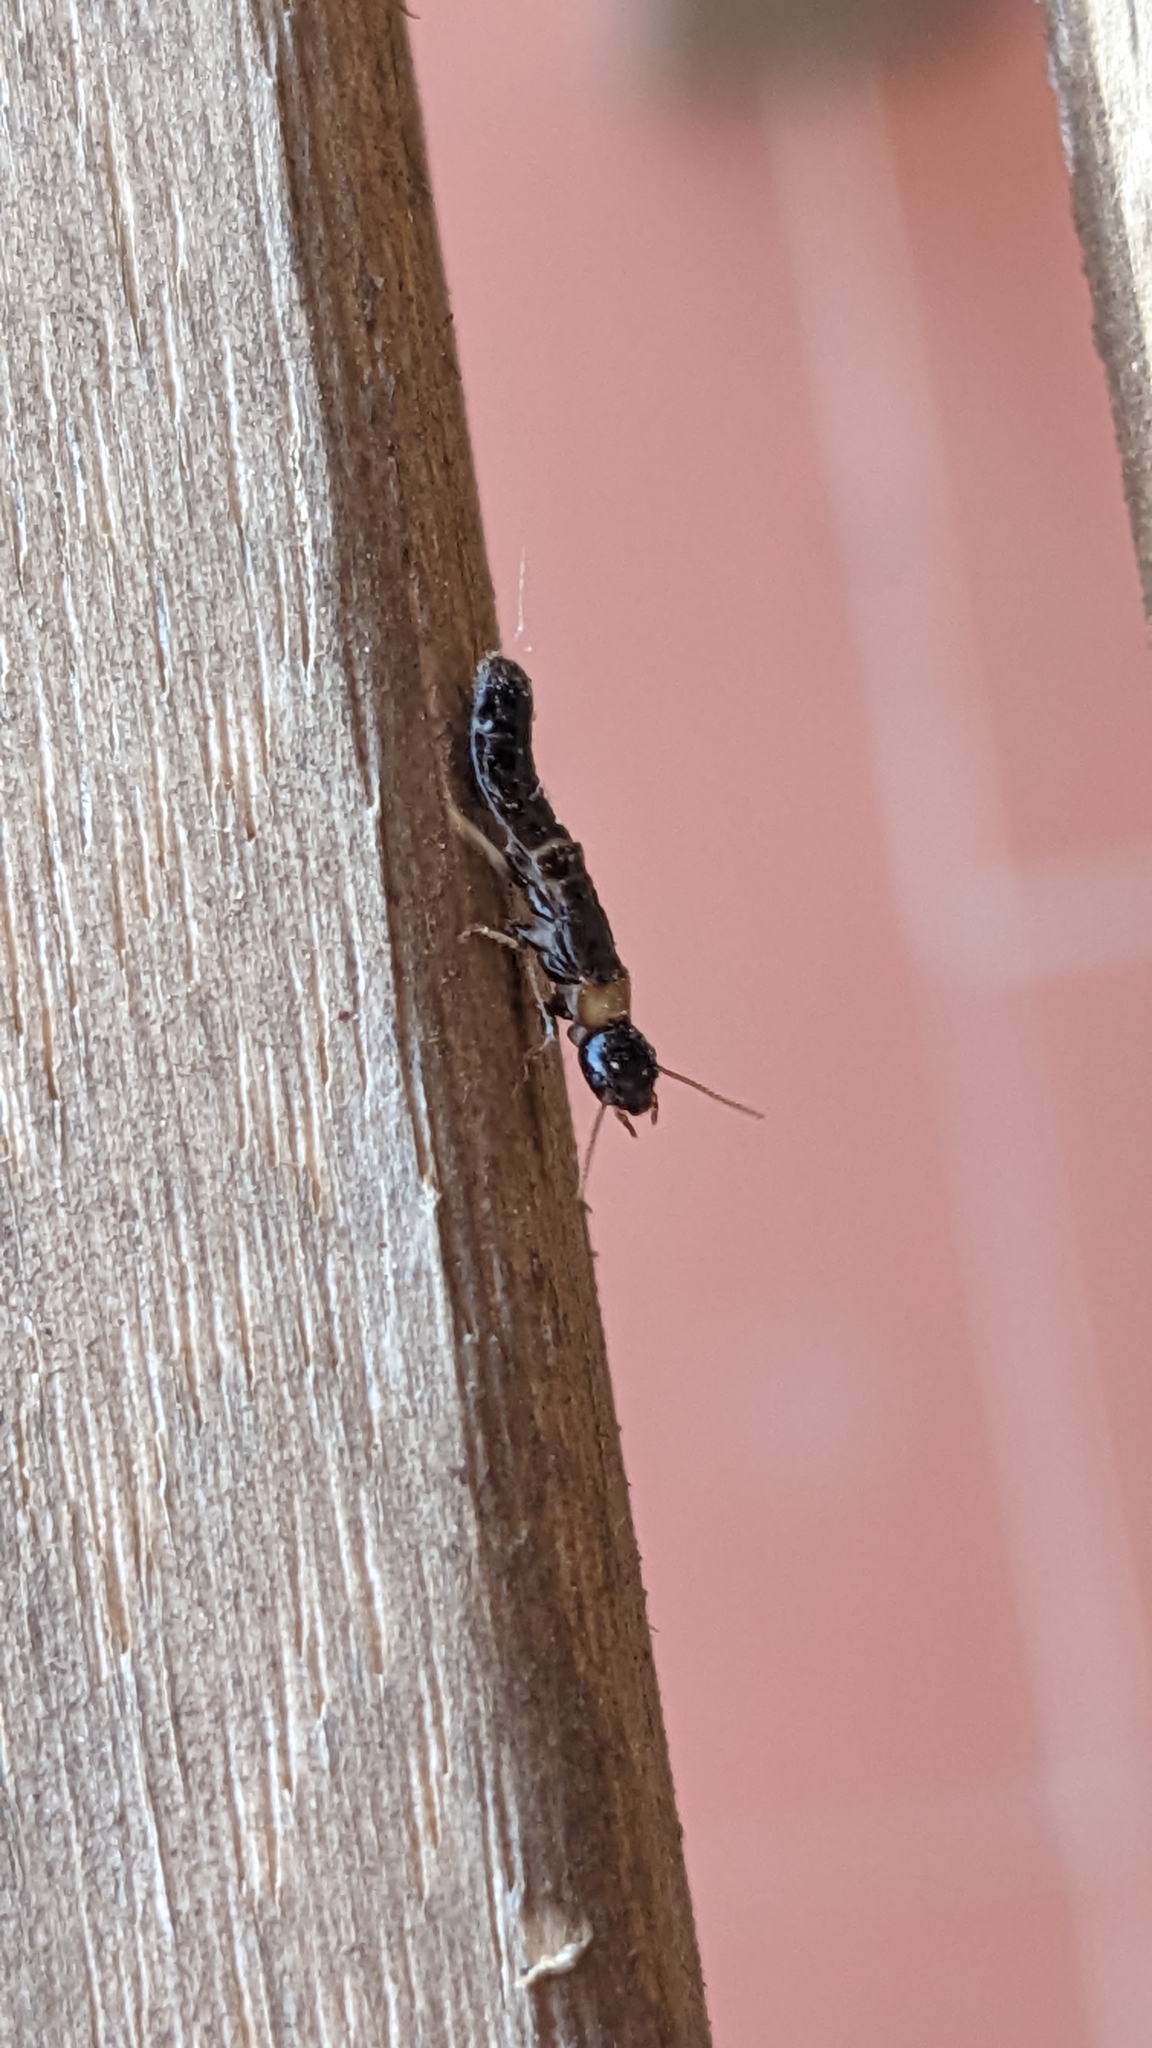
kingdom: Animalia
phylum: Arthropoda
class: Insecta
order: Blattodea
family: Kalotermitidae
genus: Kalotermes
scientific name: Kalotermes flavicollis
